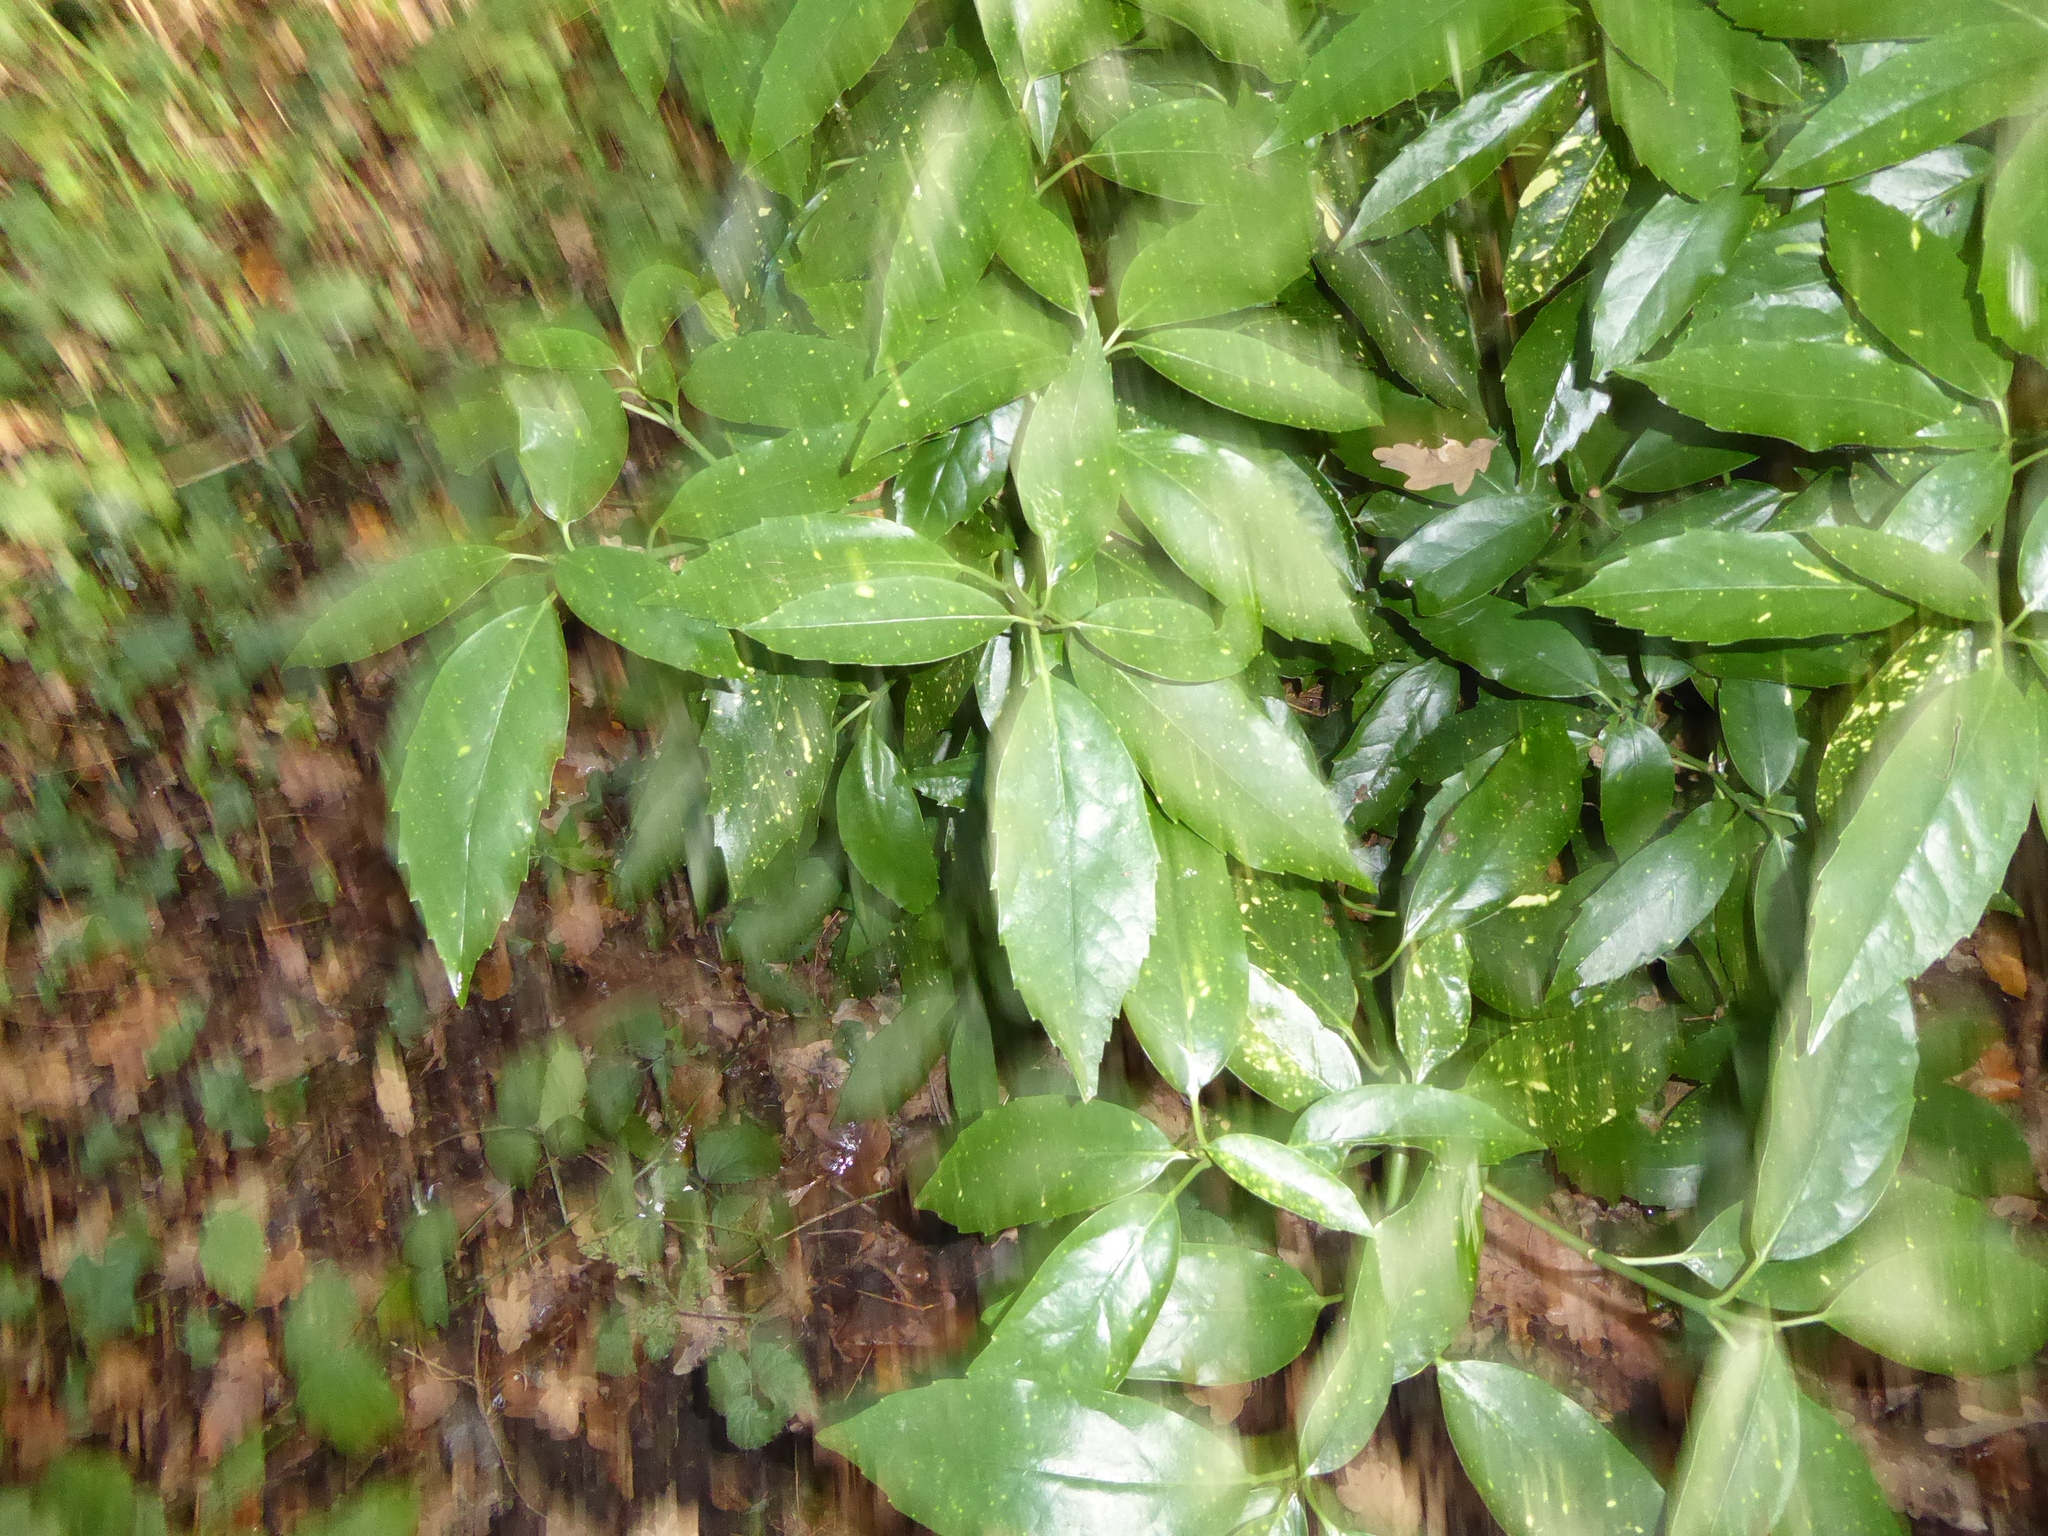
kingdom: Plantae
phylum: Tracheophyta
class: Magnoliopsida
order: Garryales
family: Garryaceae
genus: Aucuba
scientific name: Aucuba japonica
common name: Spotted-laurel
